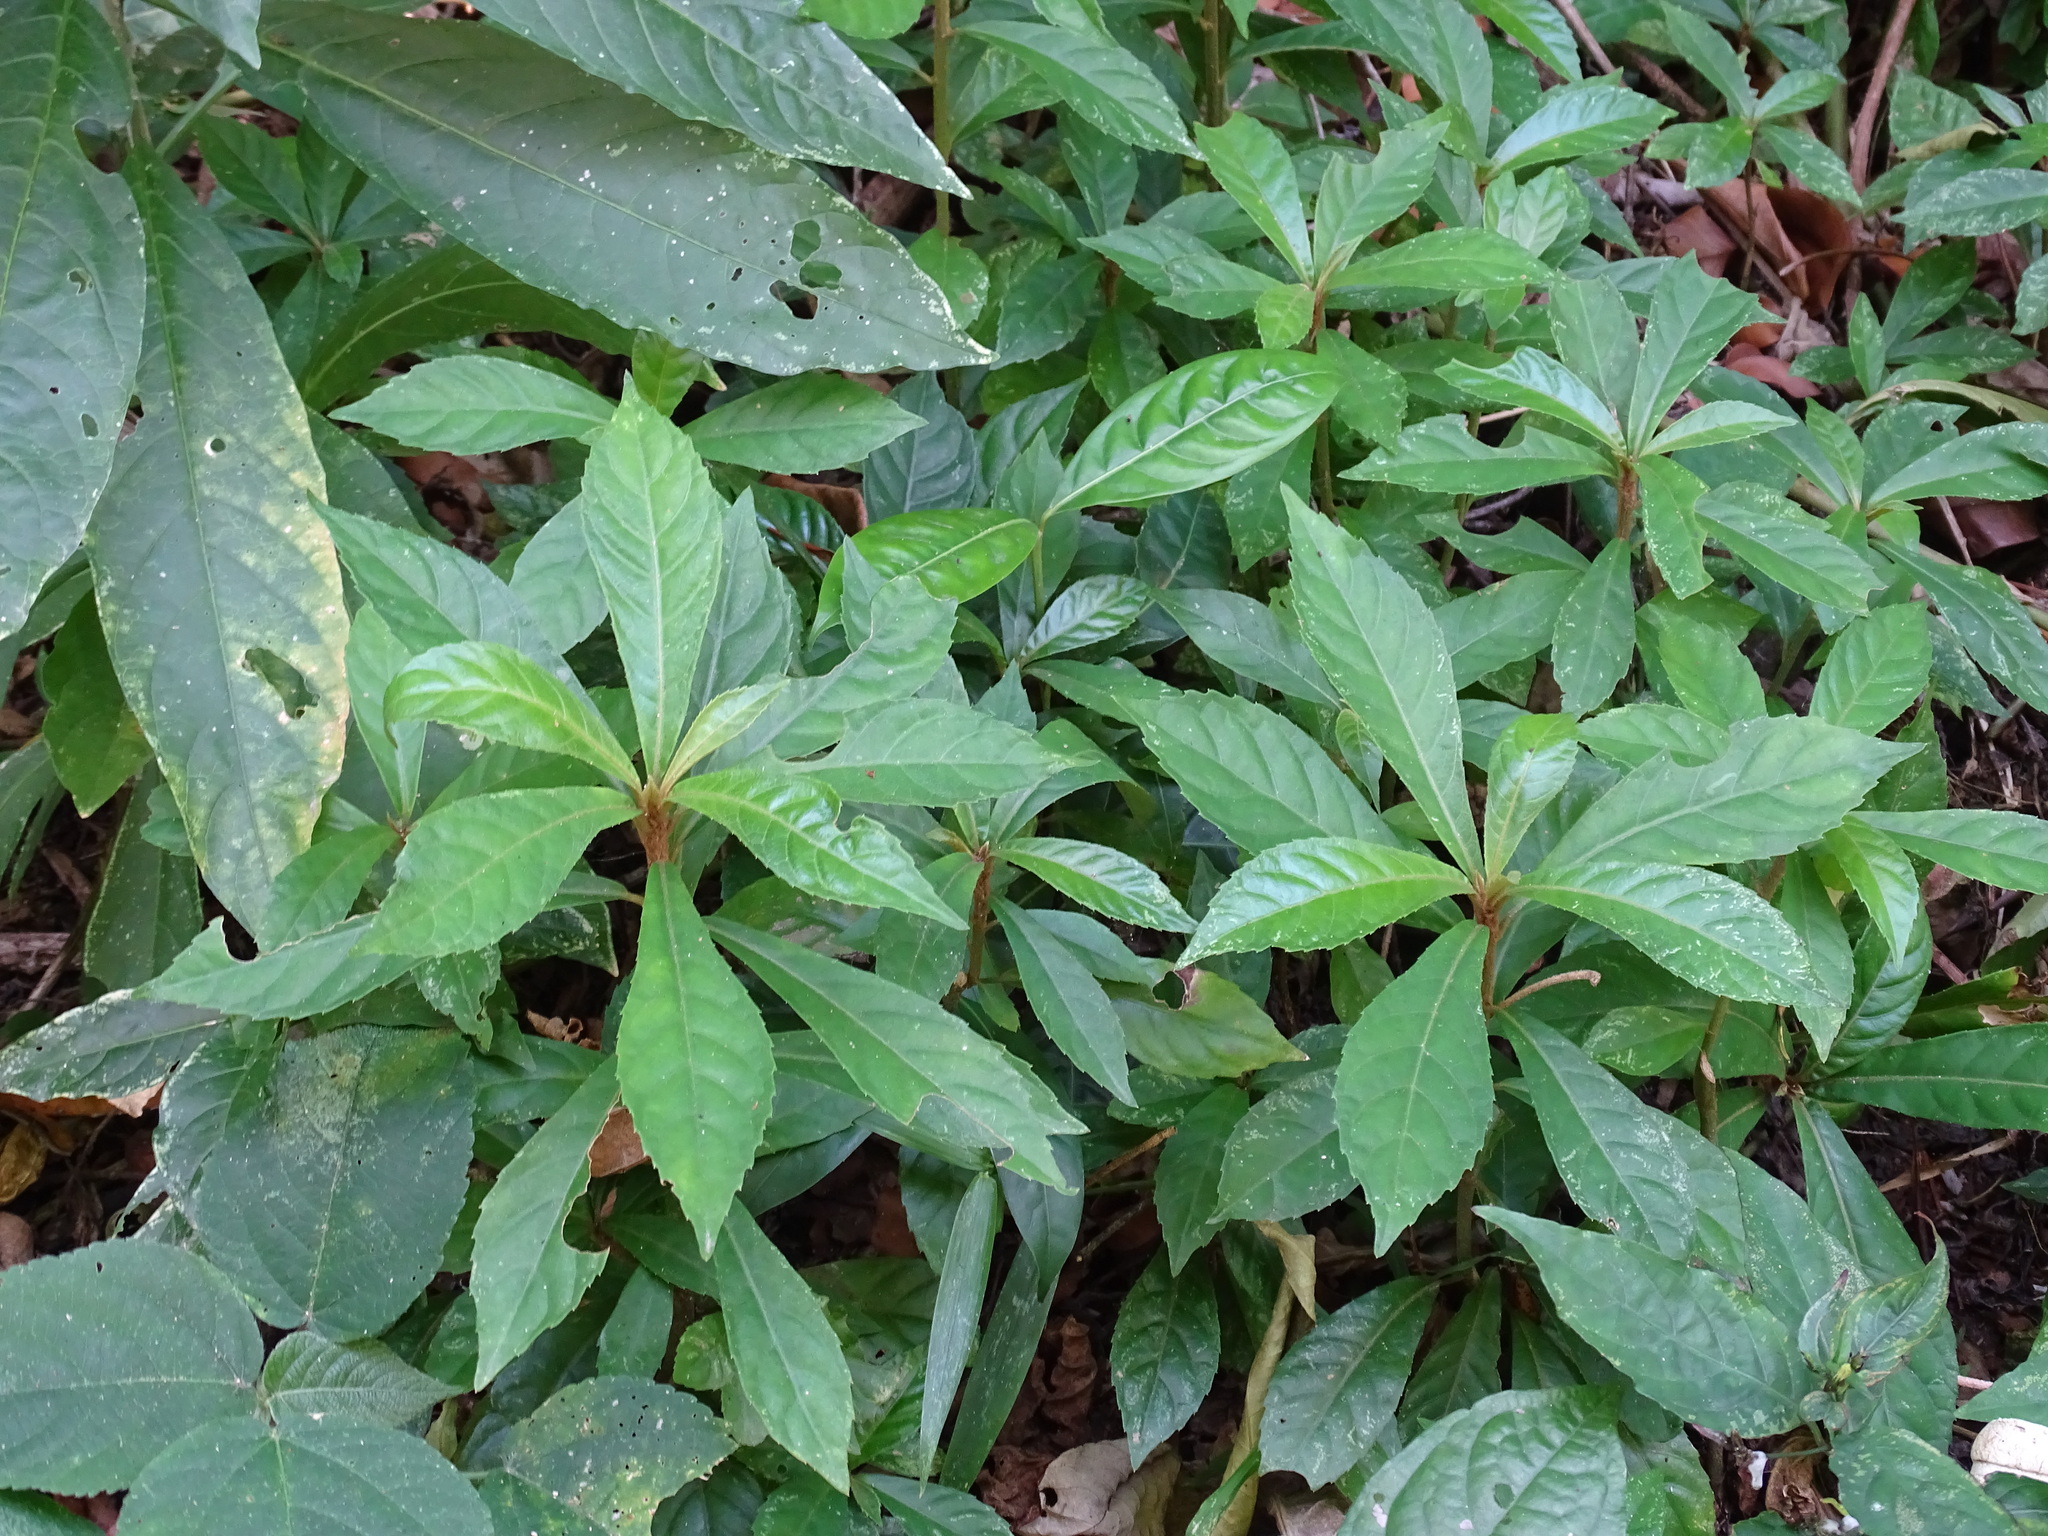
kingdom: Plantae
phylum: Tracheophyta
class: Magnoliopsida
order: Asterales
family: Asteraceae
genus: Lepidonia
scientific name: Lepidonia salvinae
